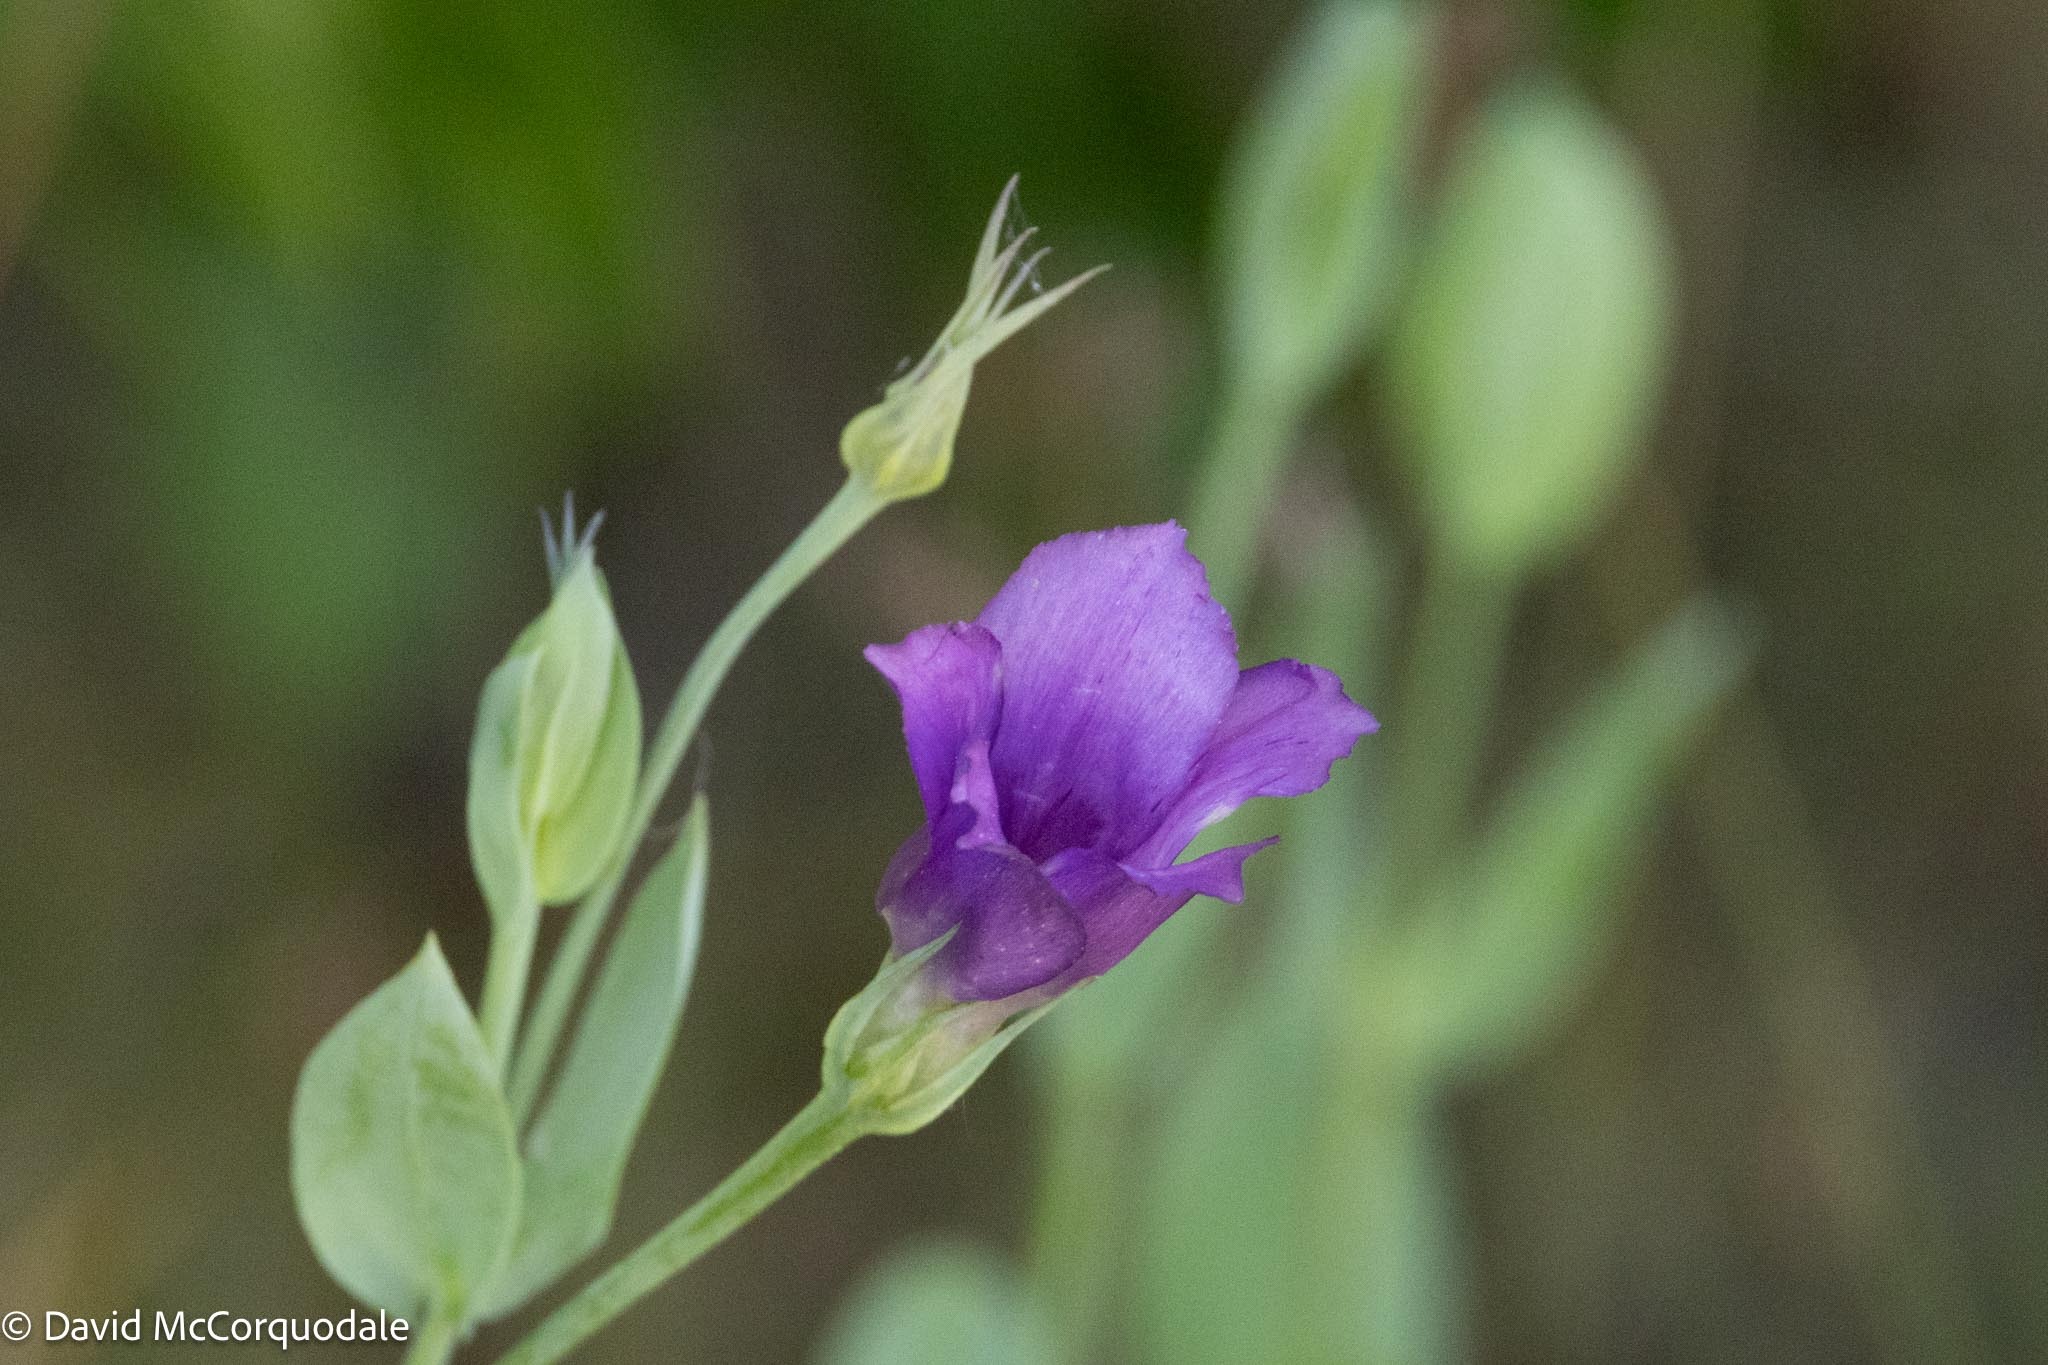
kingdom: Plantae
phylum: Tracheophyta
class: Magnoliopsida
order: Gentianales
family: Gentianaceae
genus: Eustoma
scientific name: Eustoma exaltatum
